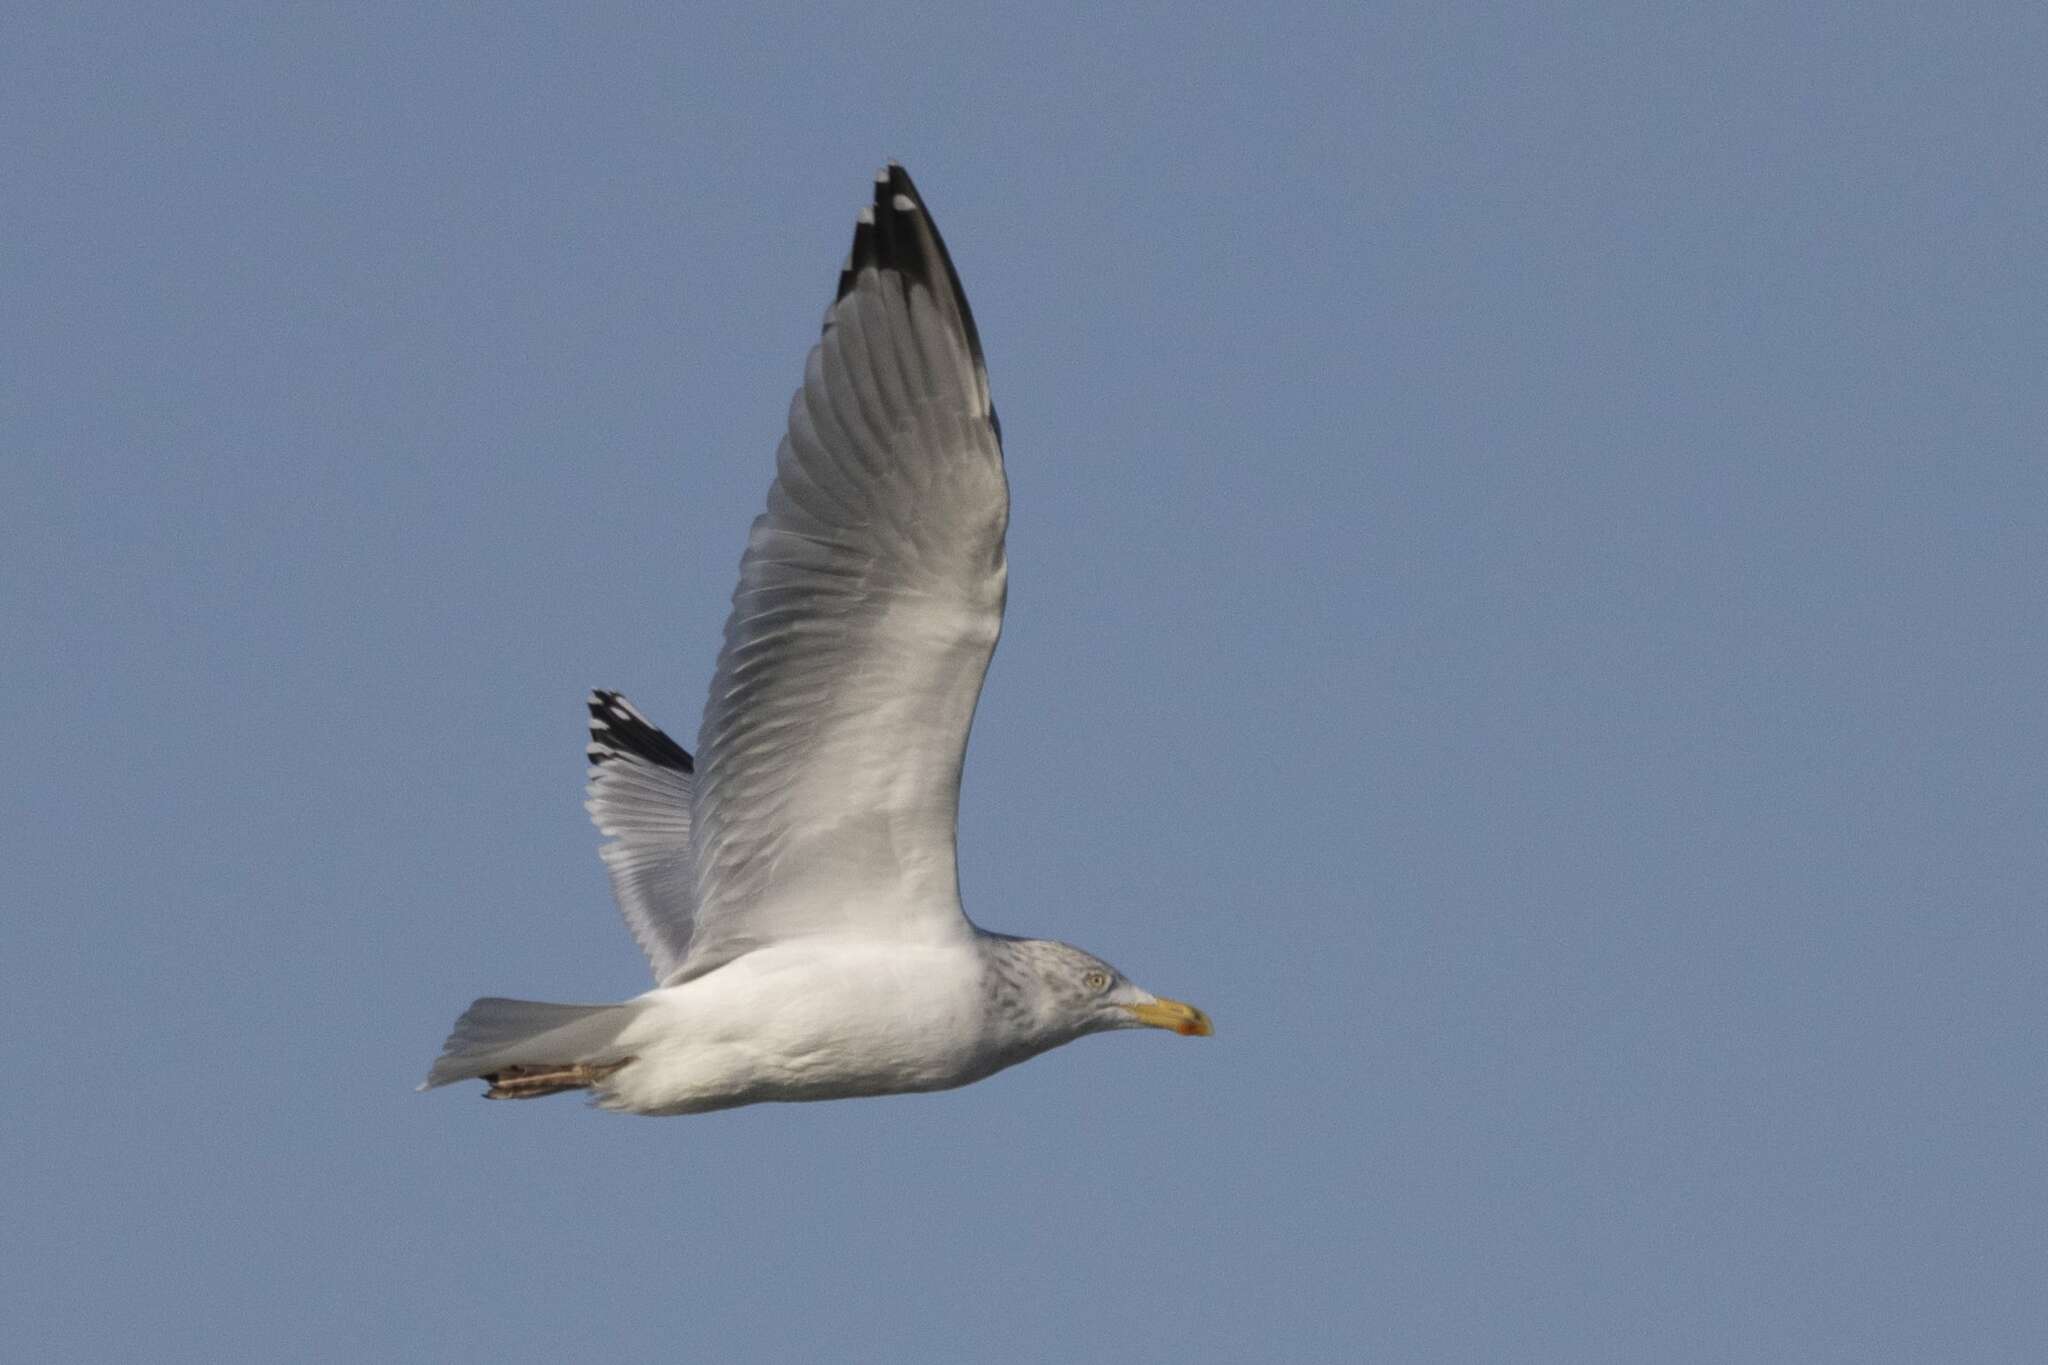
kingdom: Animalia
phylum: Chordata
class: Aves
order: Charadriiformes
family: Laridae
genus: Larus
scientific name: Larus argentatus
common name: Herring gull
